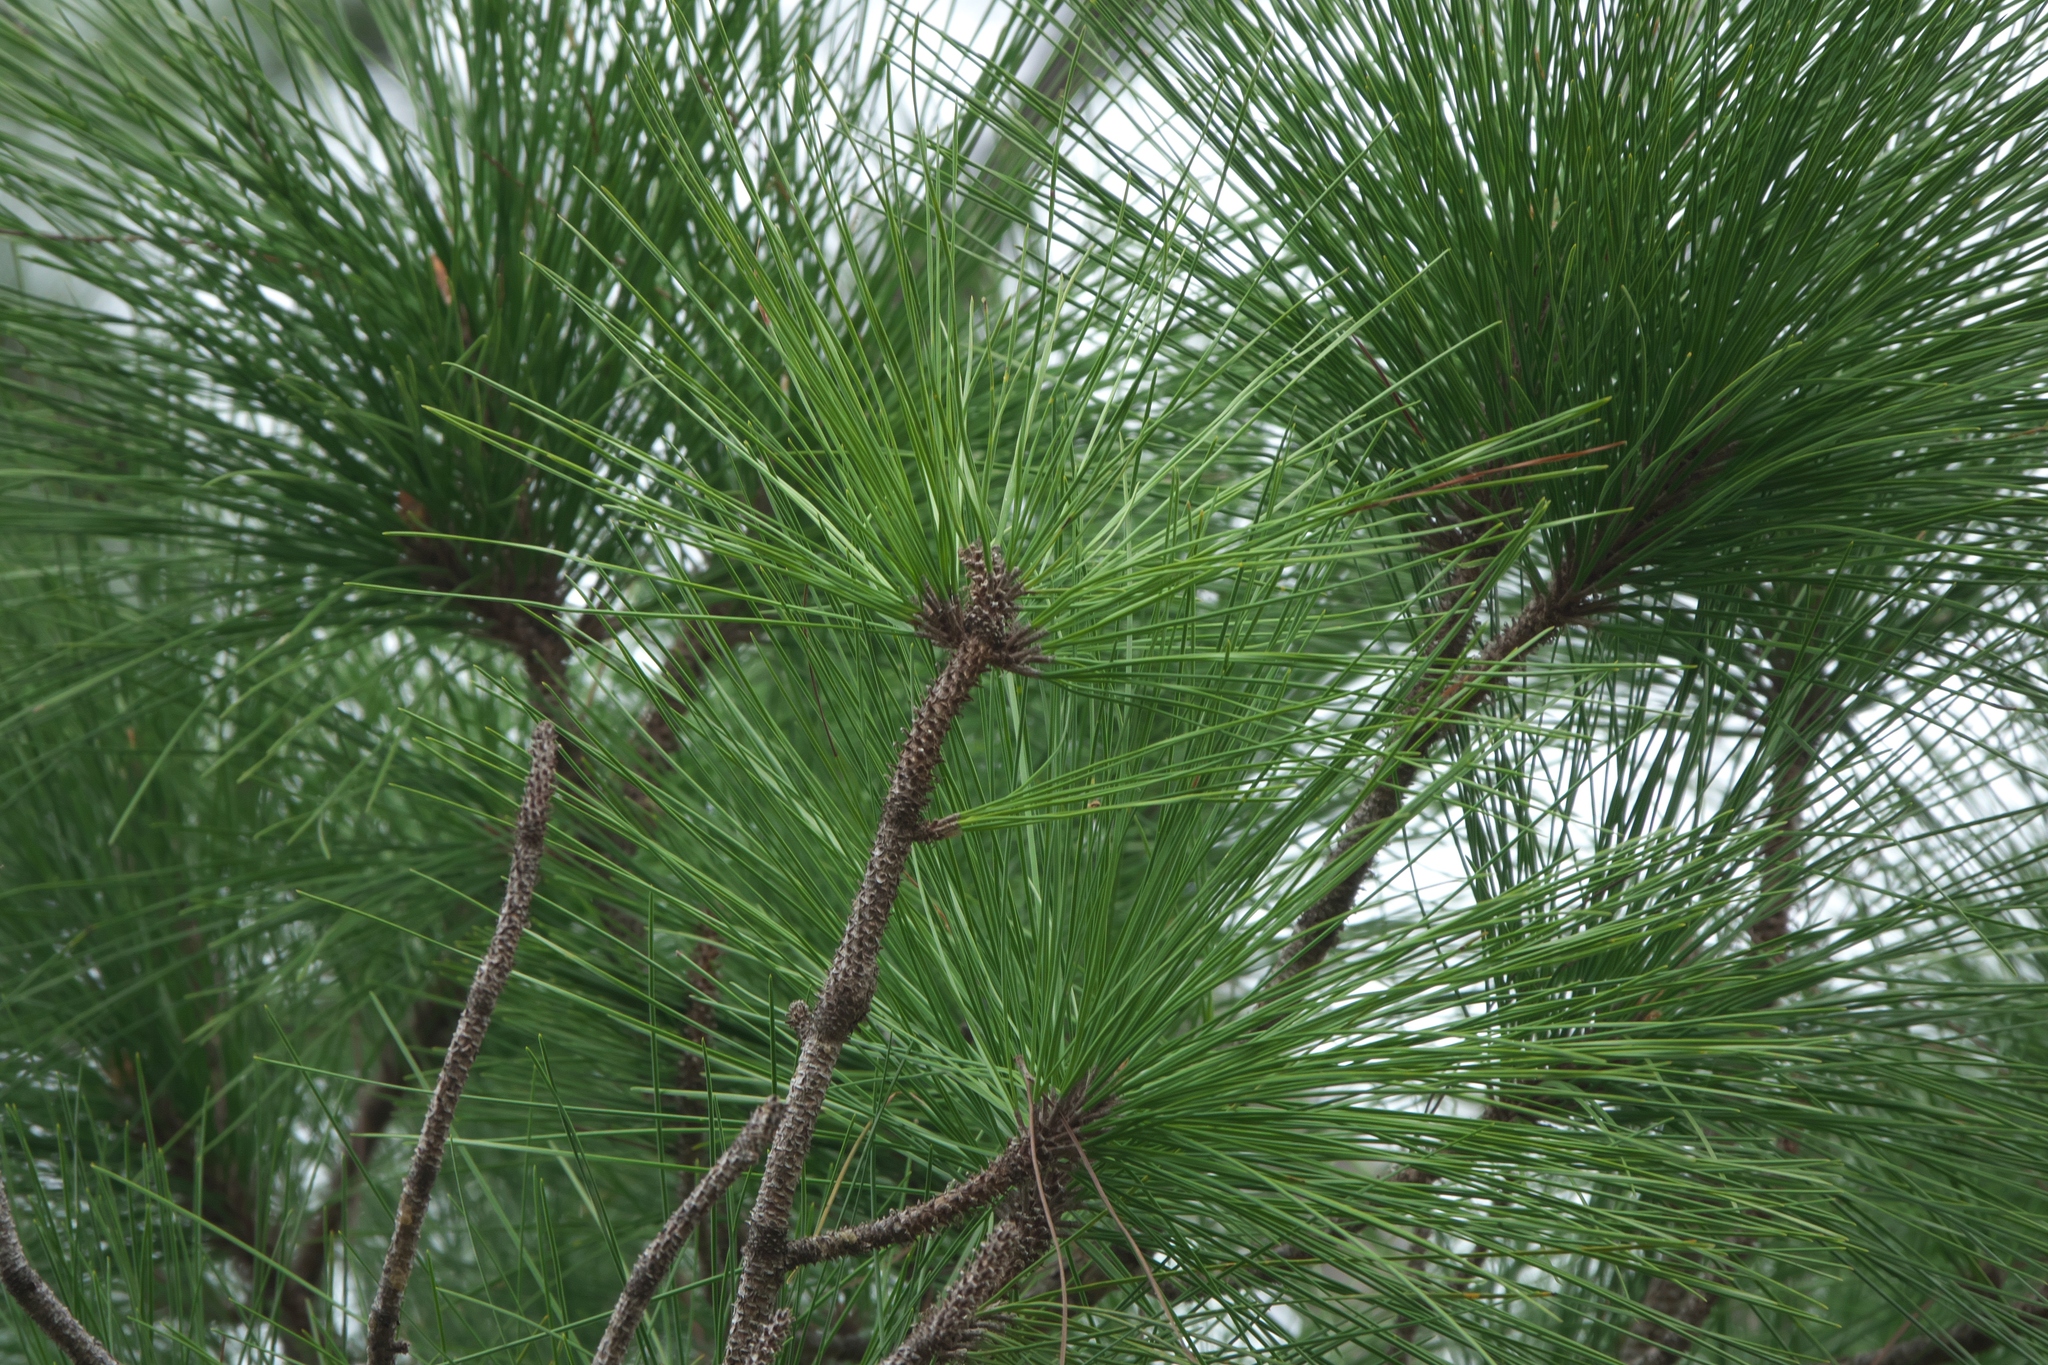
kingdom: Plantae
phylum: Tracheophyta
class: Pinopsida
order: Pinales
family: Pinaceae
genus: Pinus
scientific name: Pinus elliottii
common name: Slash pine
